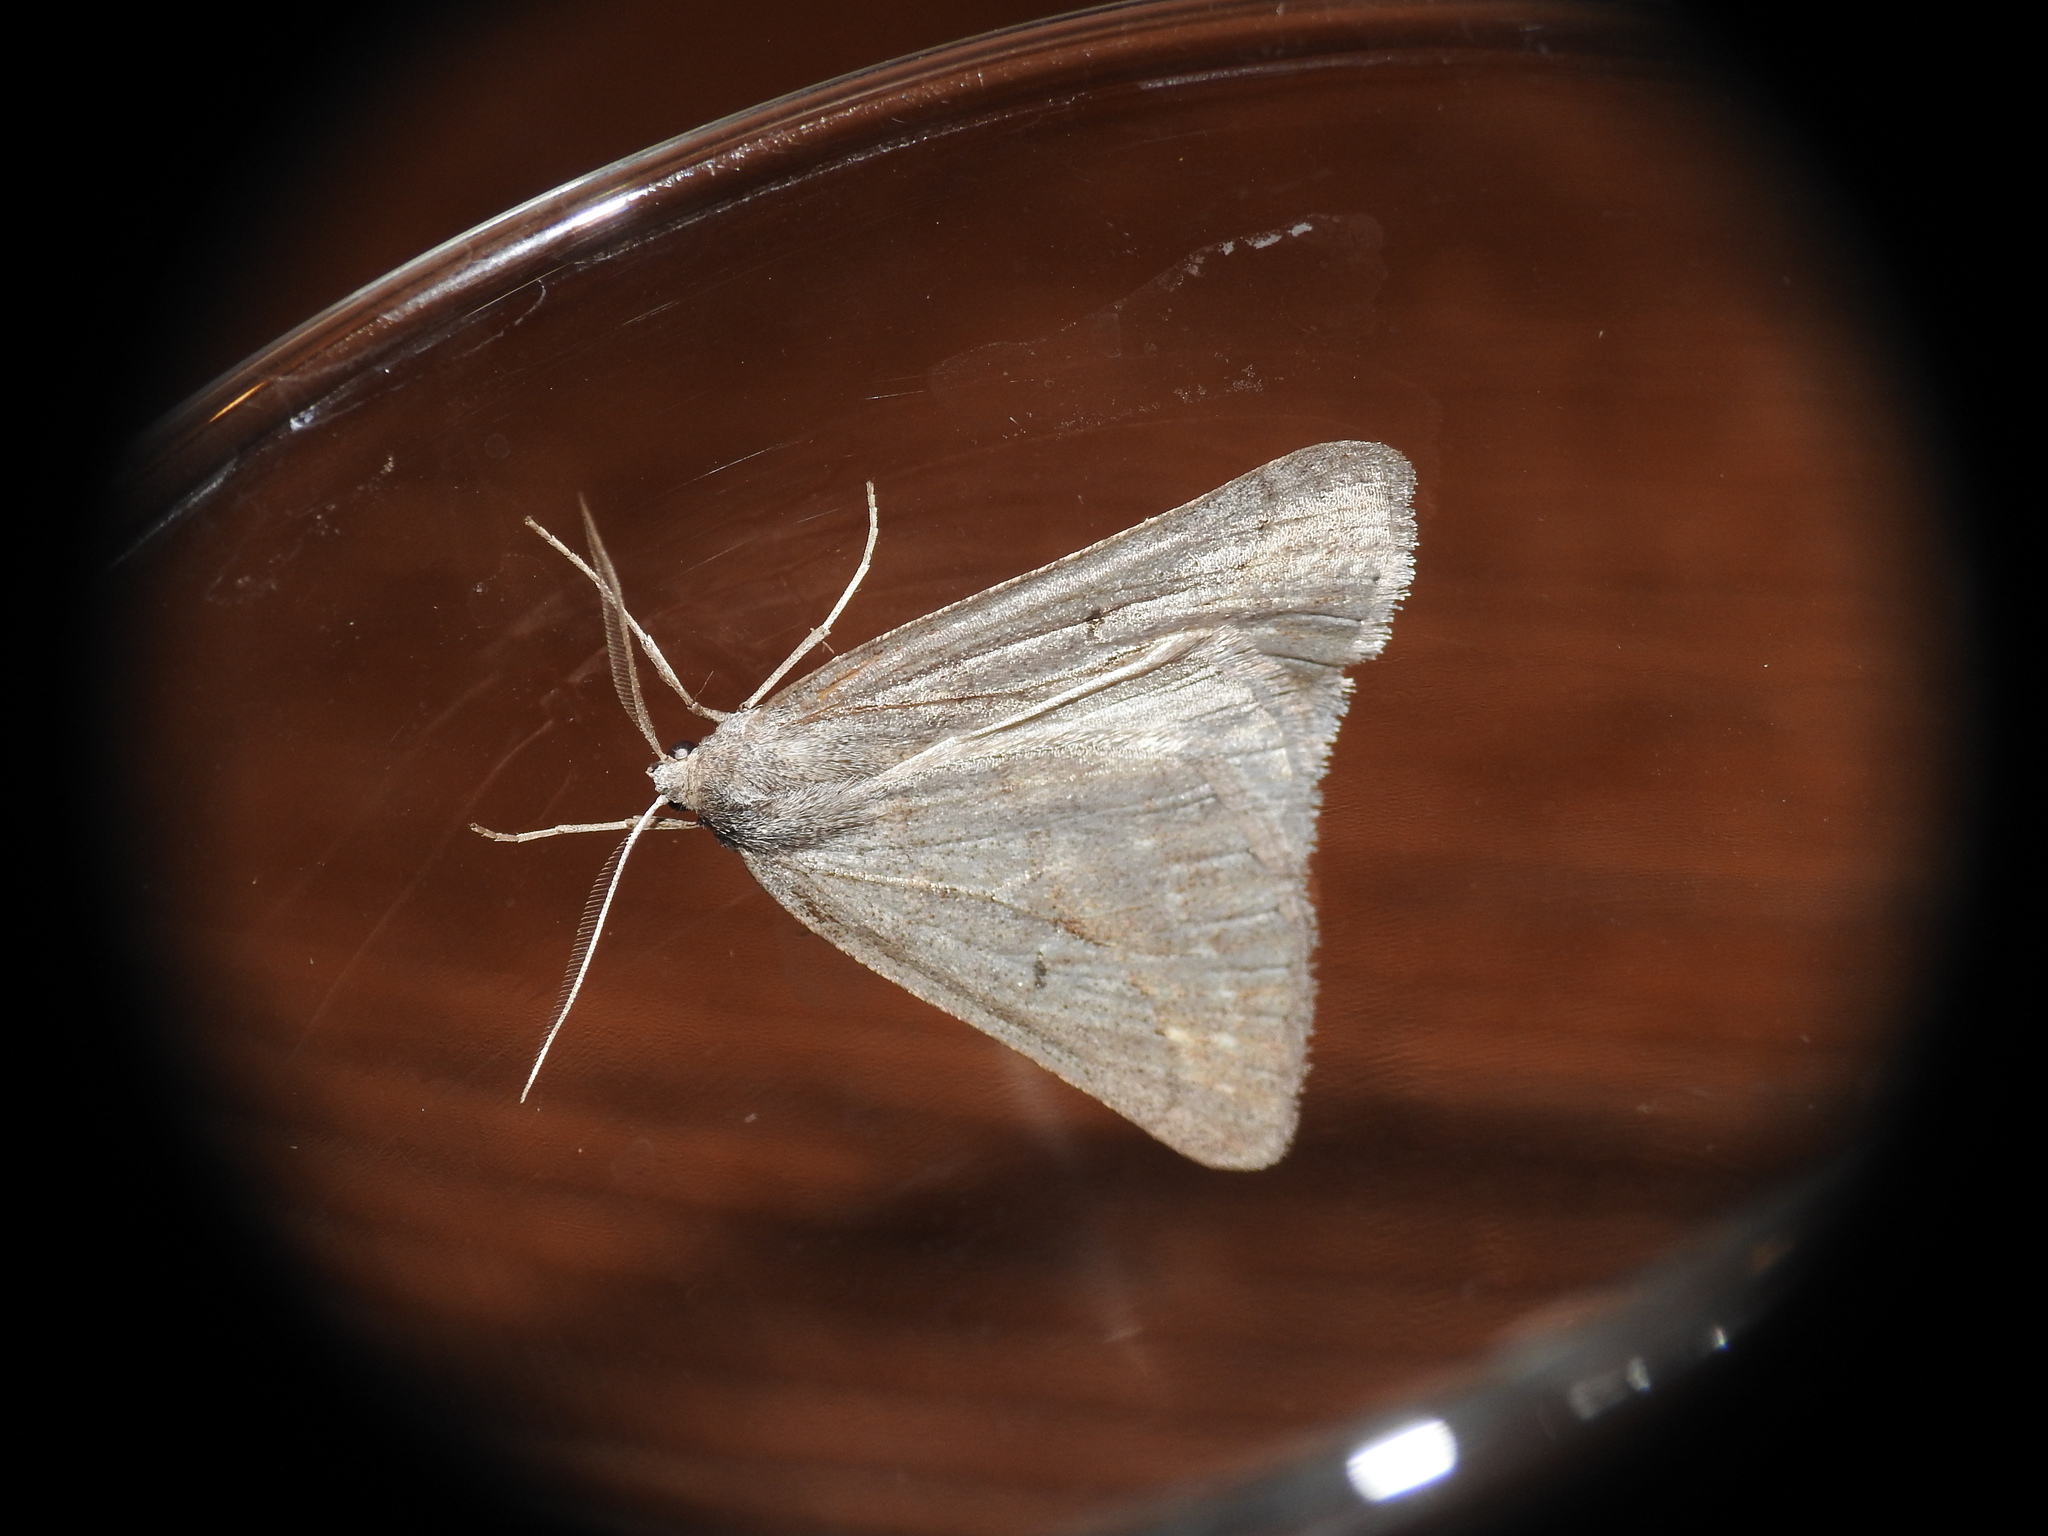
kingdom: Animalia
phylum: Arthropoda
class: Insecta
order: Lepidoptera
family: Geometridae
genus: Chemerina
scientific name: Chemerina caliginearia
